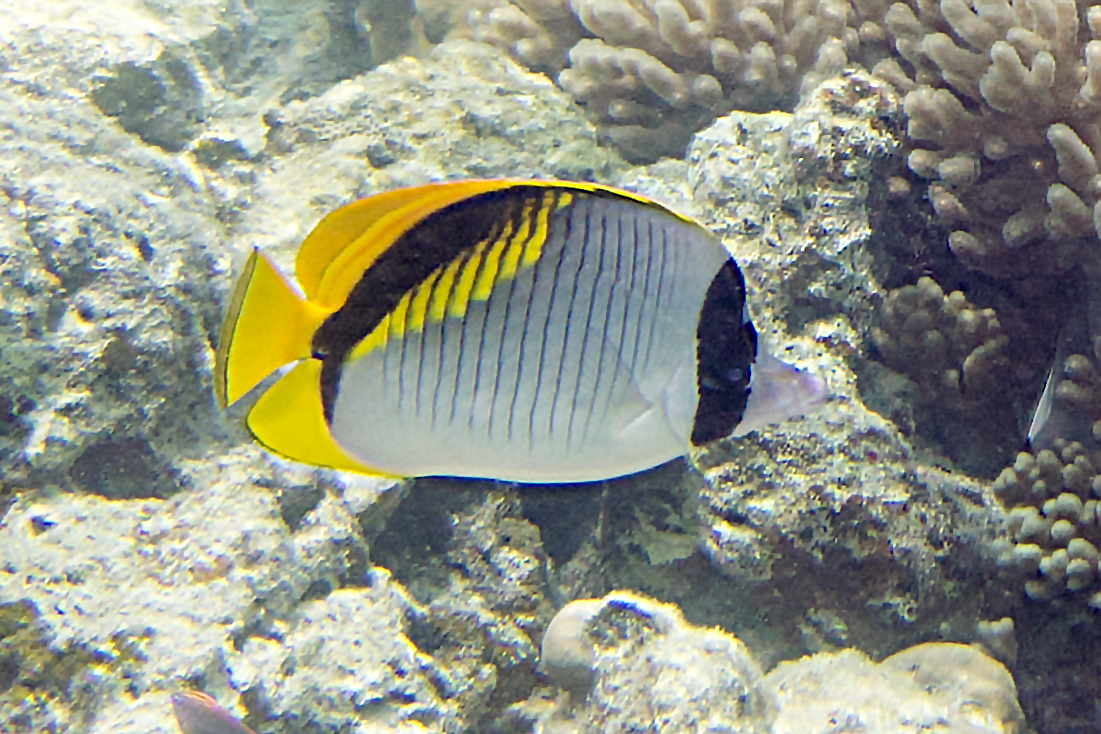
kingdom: Animalia
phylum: Chordata
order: Perciformes
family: Chaetodontidae
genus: Chaetodon
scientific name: Chaetodon lineolatus
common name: Lined butterflyfish
